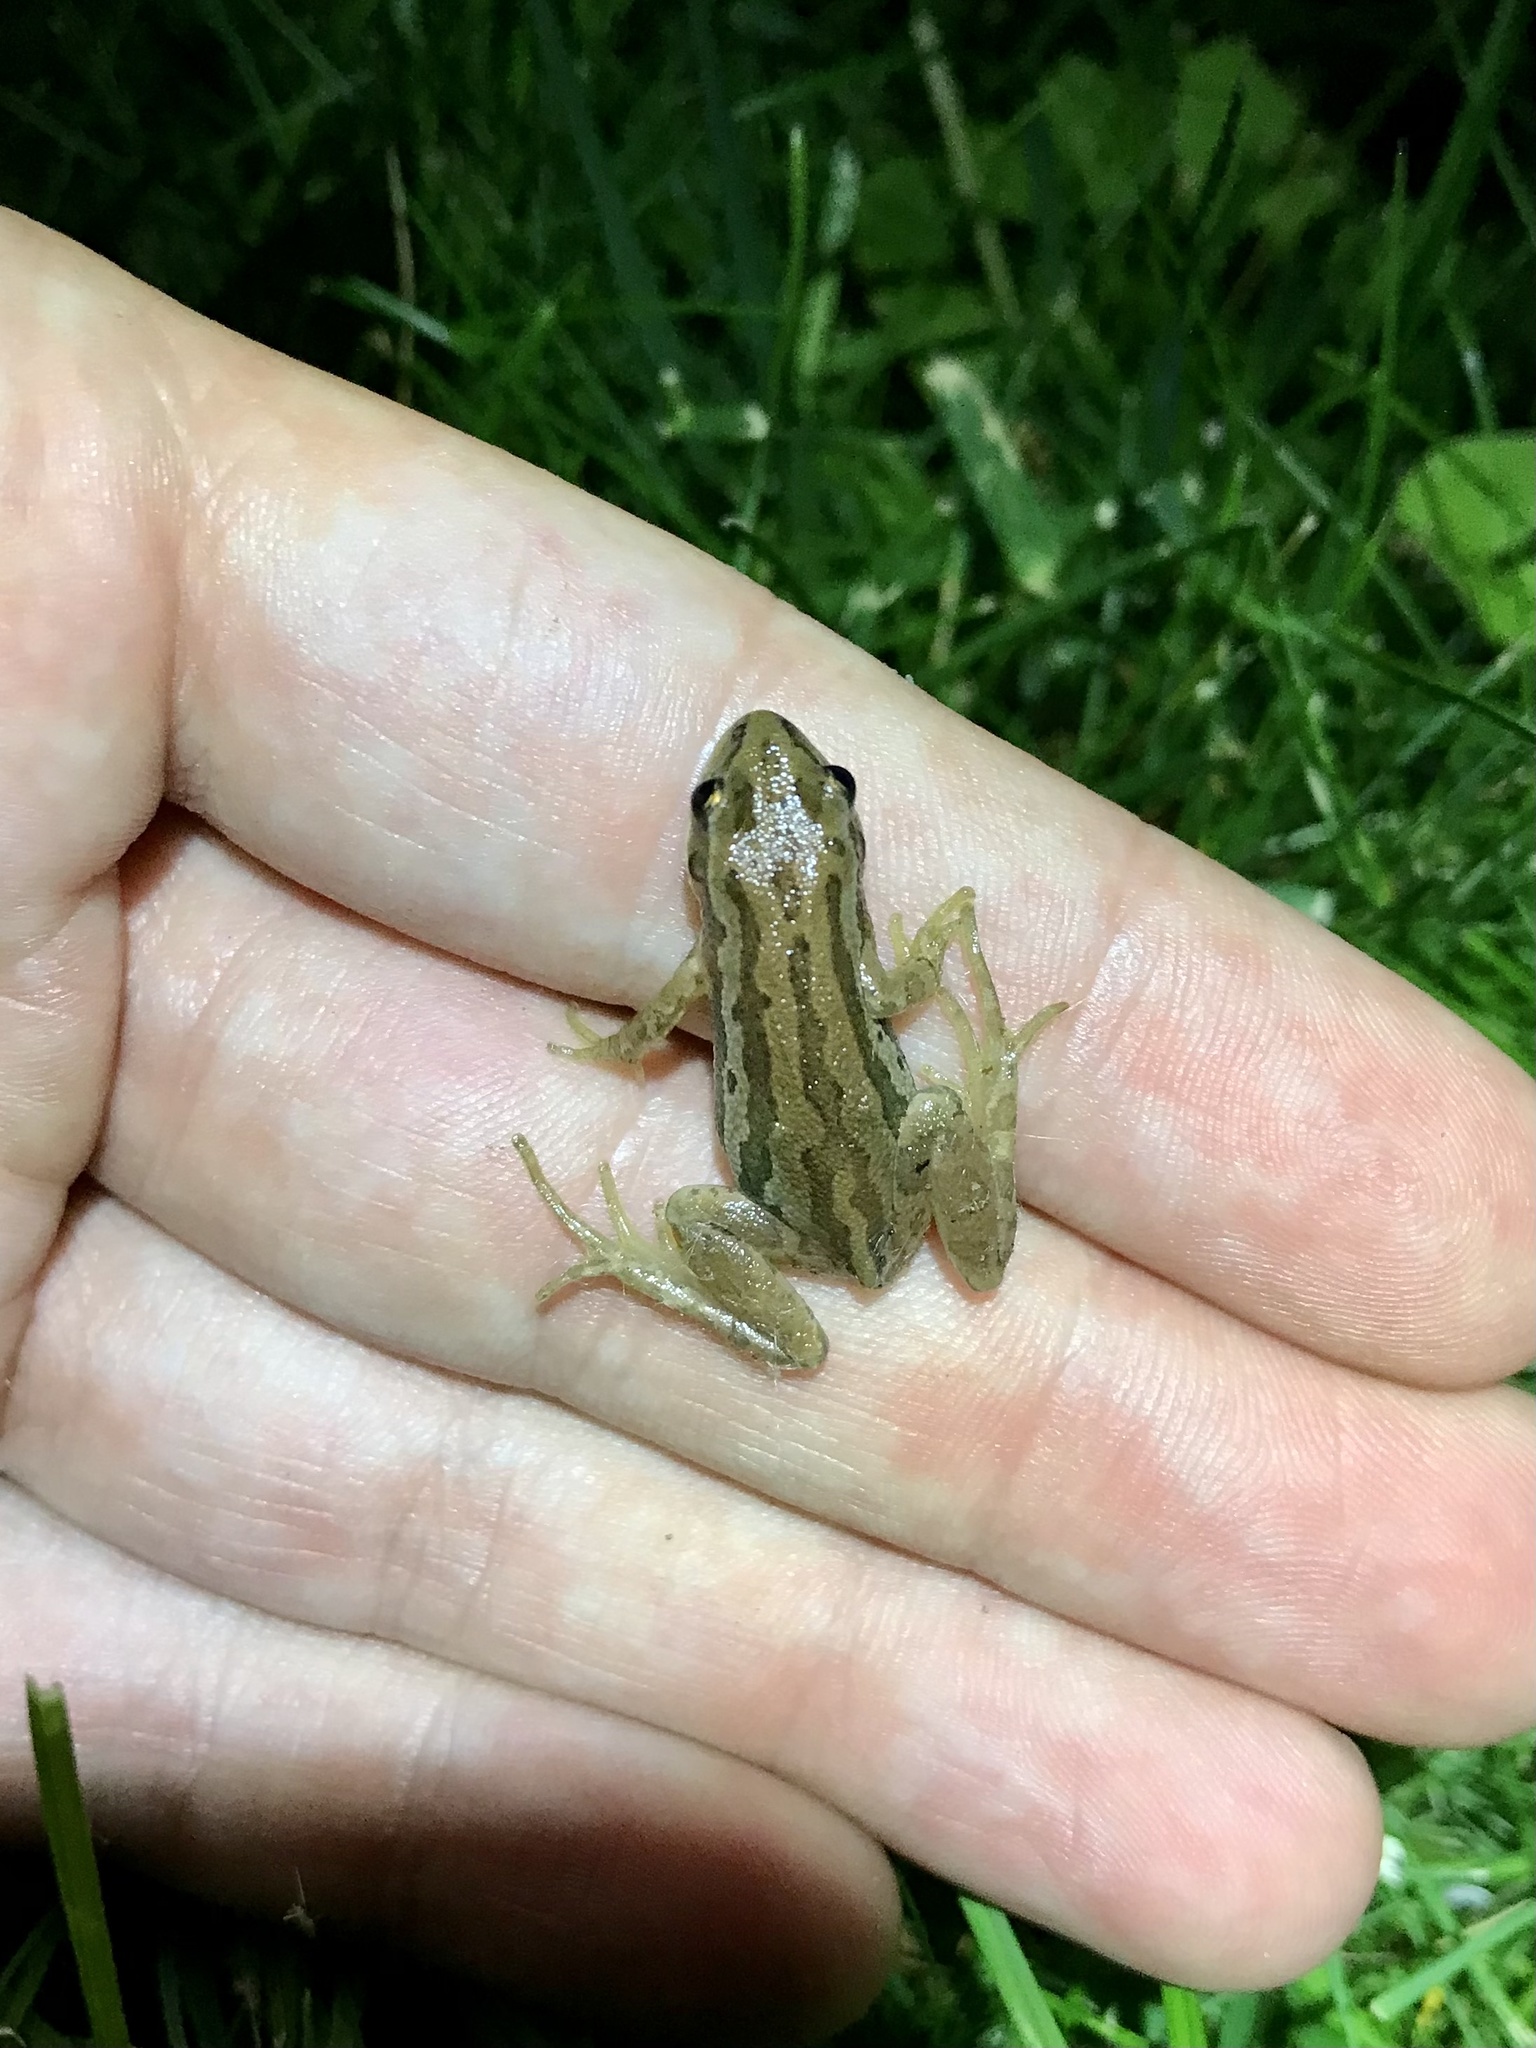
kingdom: Animalia
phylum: Chordata
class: Amphibia
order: Anura
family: Hylidae
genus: Pseudacris
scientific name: Pseudacris maculata
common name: Boreal chorus frog
